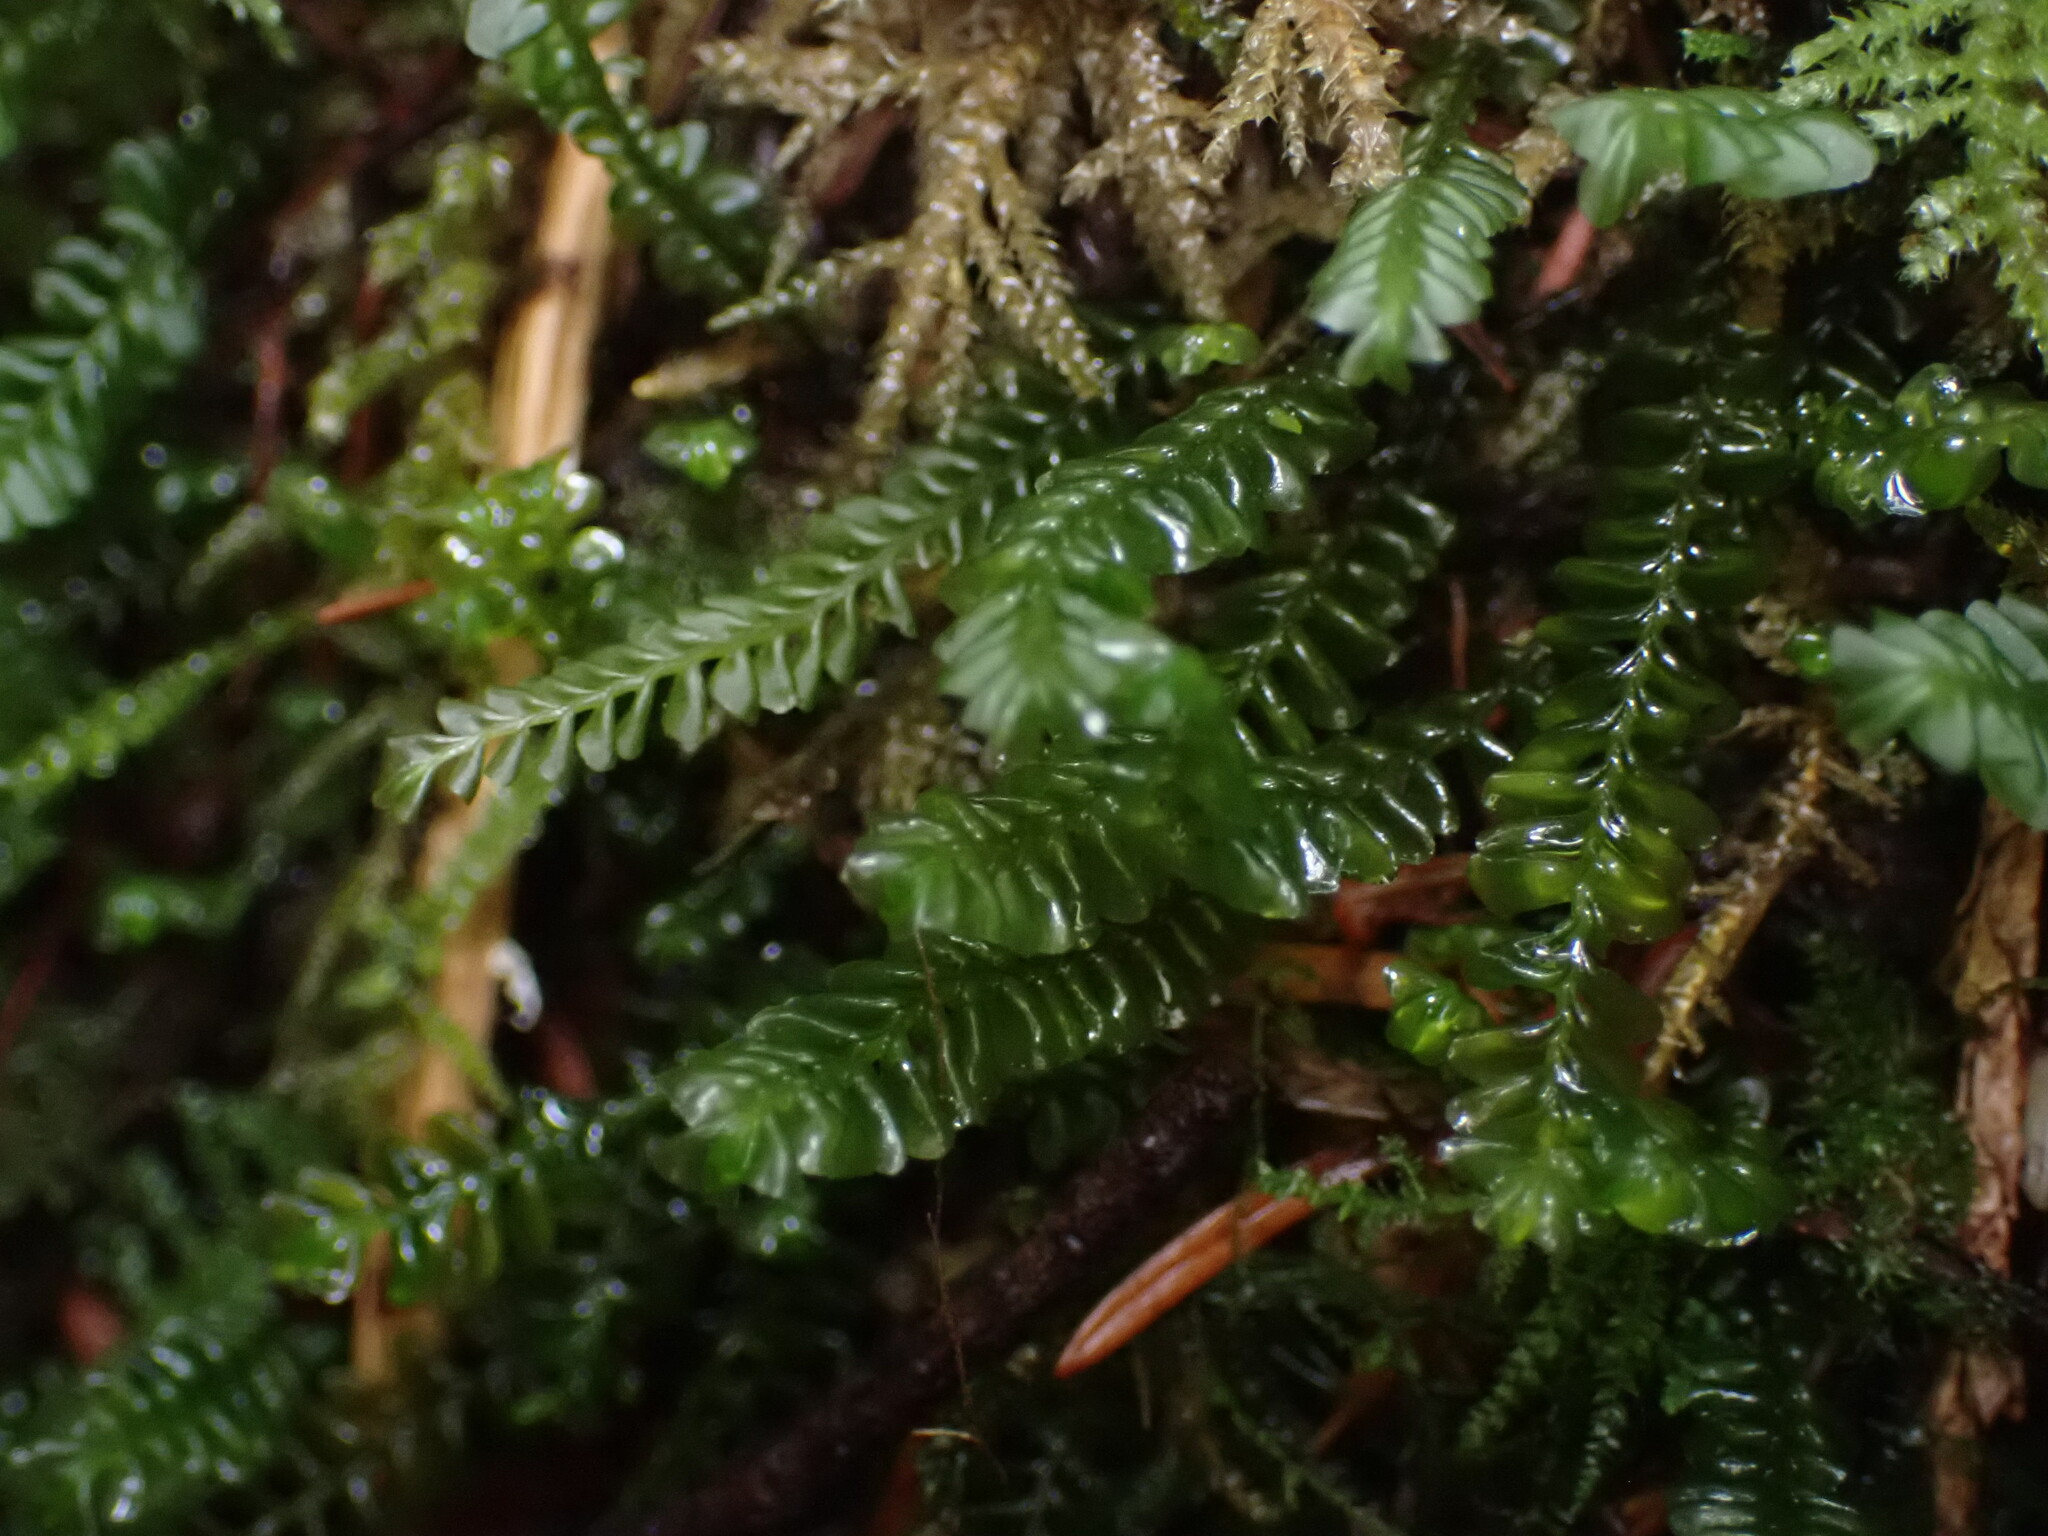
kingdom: Plantae
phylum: Marchantiophyta
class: Jungermanniopsida
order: Jungermanniales
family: Plagiochilaceae
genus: Plagiochila
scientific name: Plagiochila porelloides
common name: Lesser featherwort
